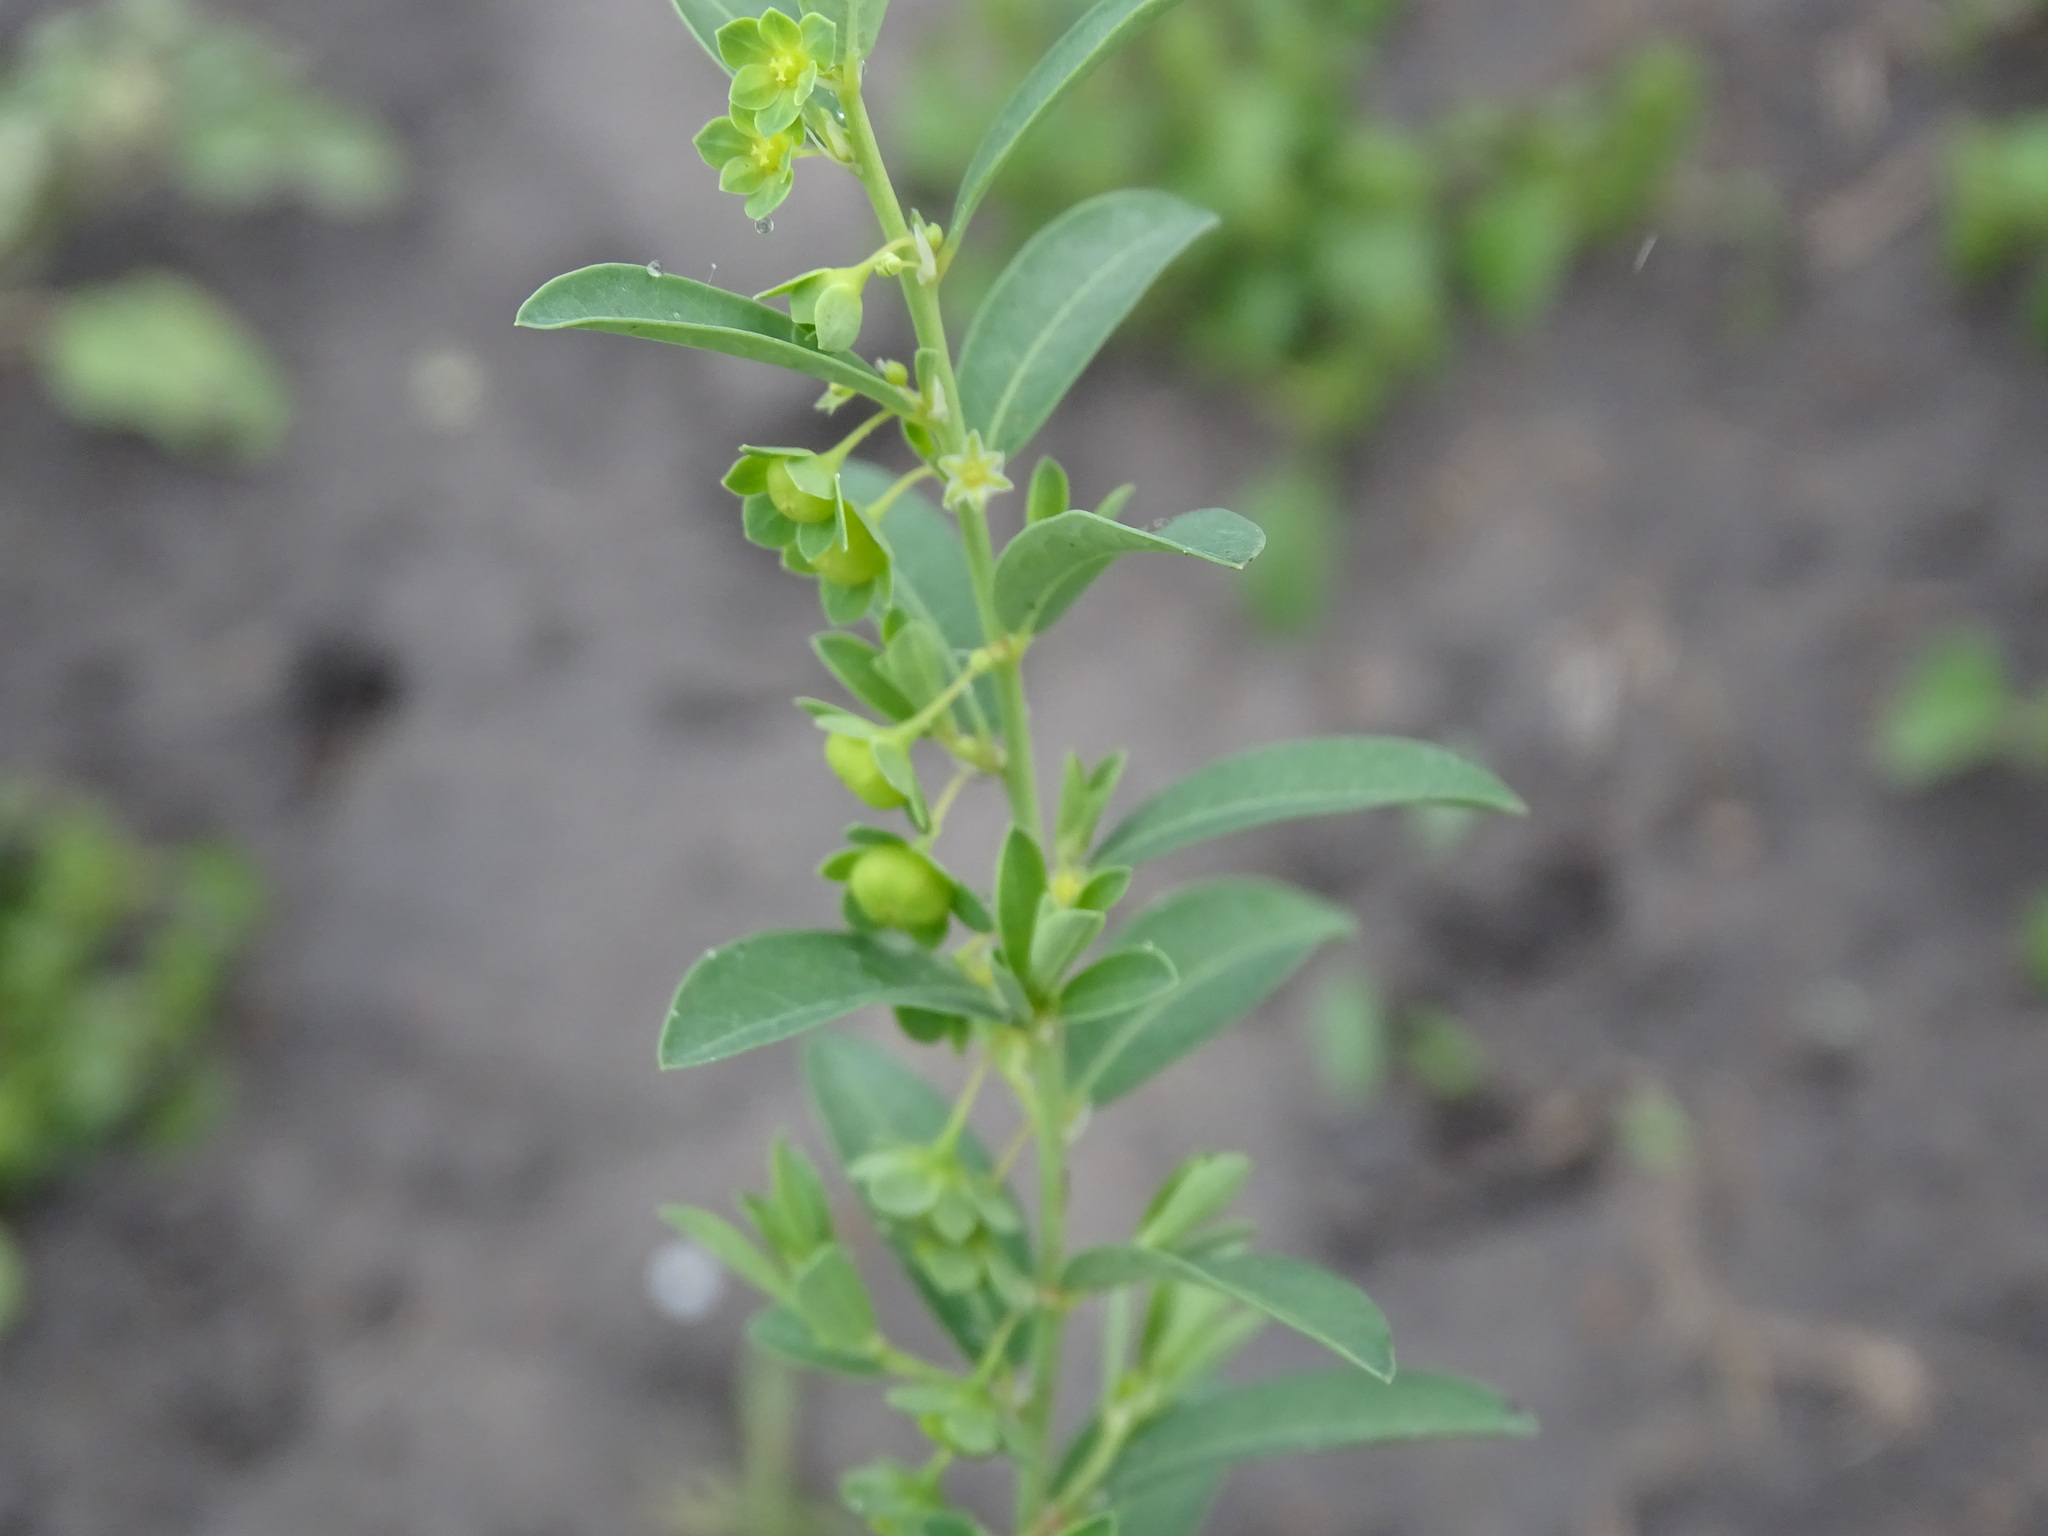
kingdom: Plantae
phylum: Tracheophyta
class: Magnoliopsida
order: Malpighiales
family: Phyllanthaceae
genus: Phyllanthus
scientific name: Phyllanthus polygonoides
